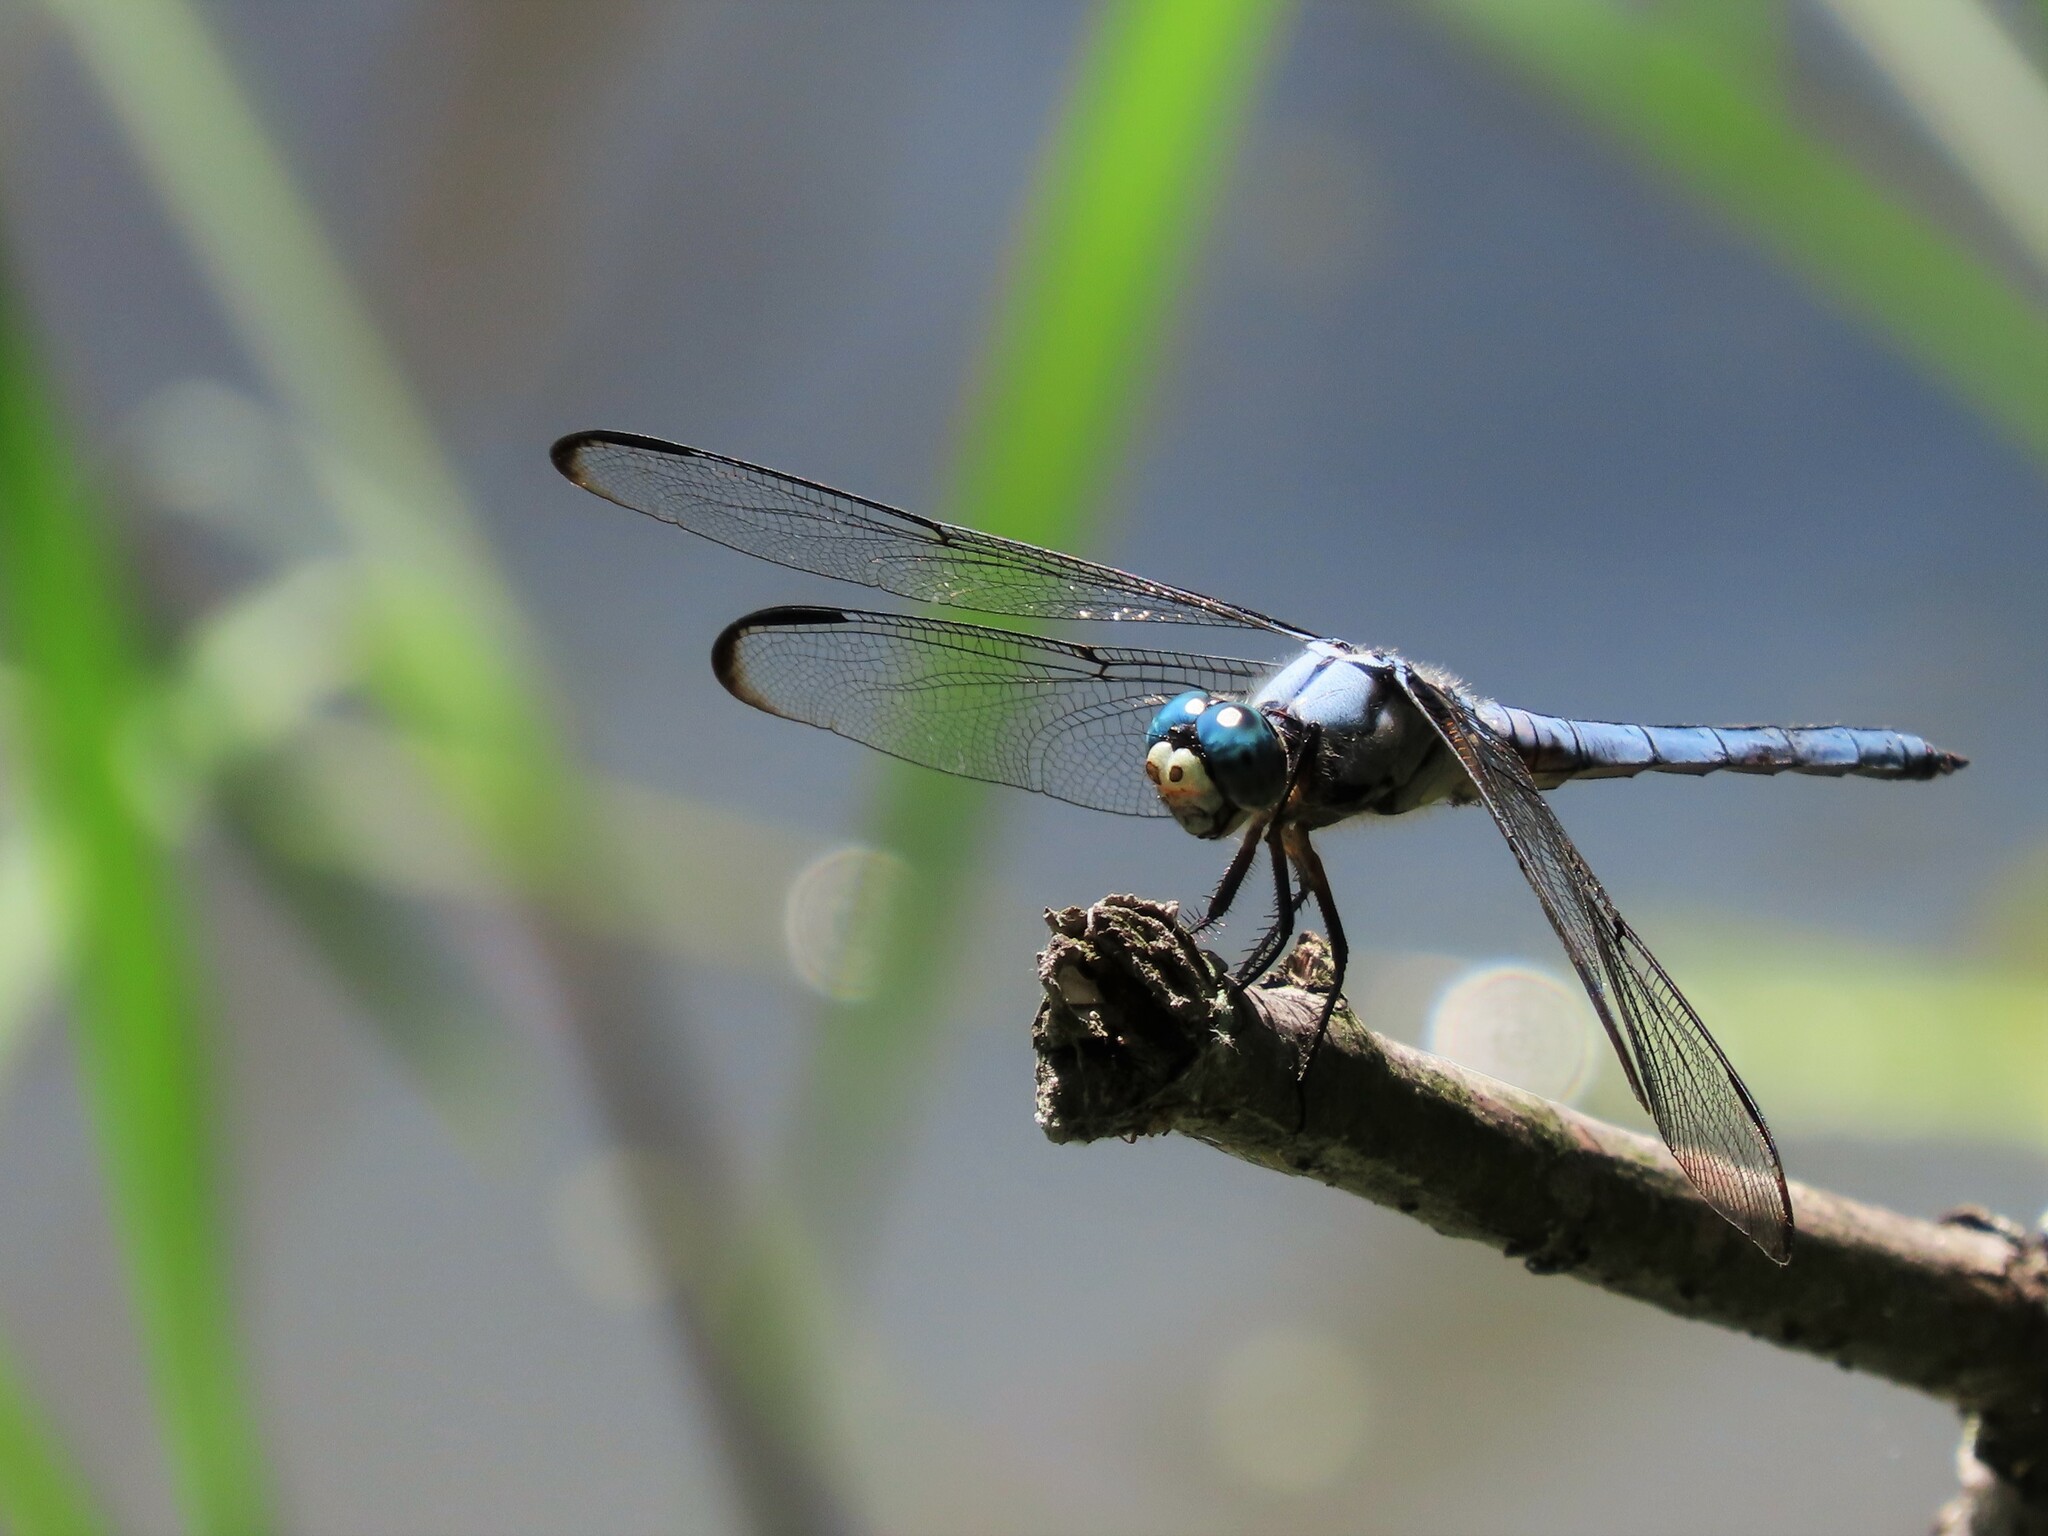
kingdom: Animalia
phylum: Arthropoda
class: Insecta
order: Odonata
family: Libellulidae
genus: Libellula
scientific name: Libellula vibrans
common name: Great blue skimmer
